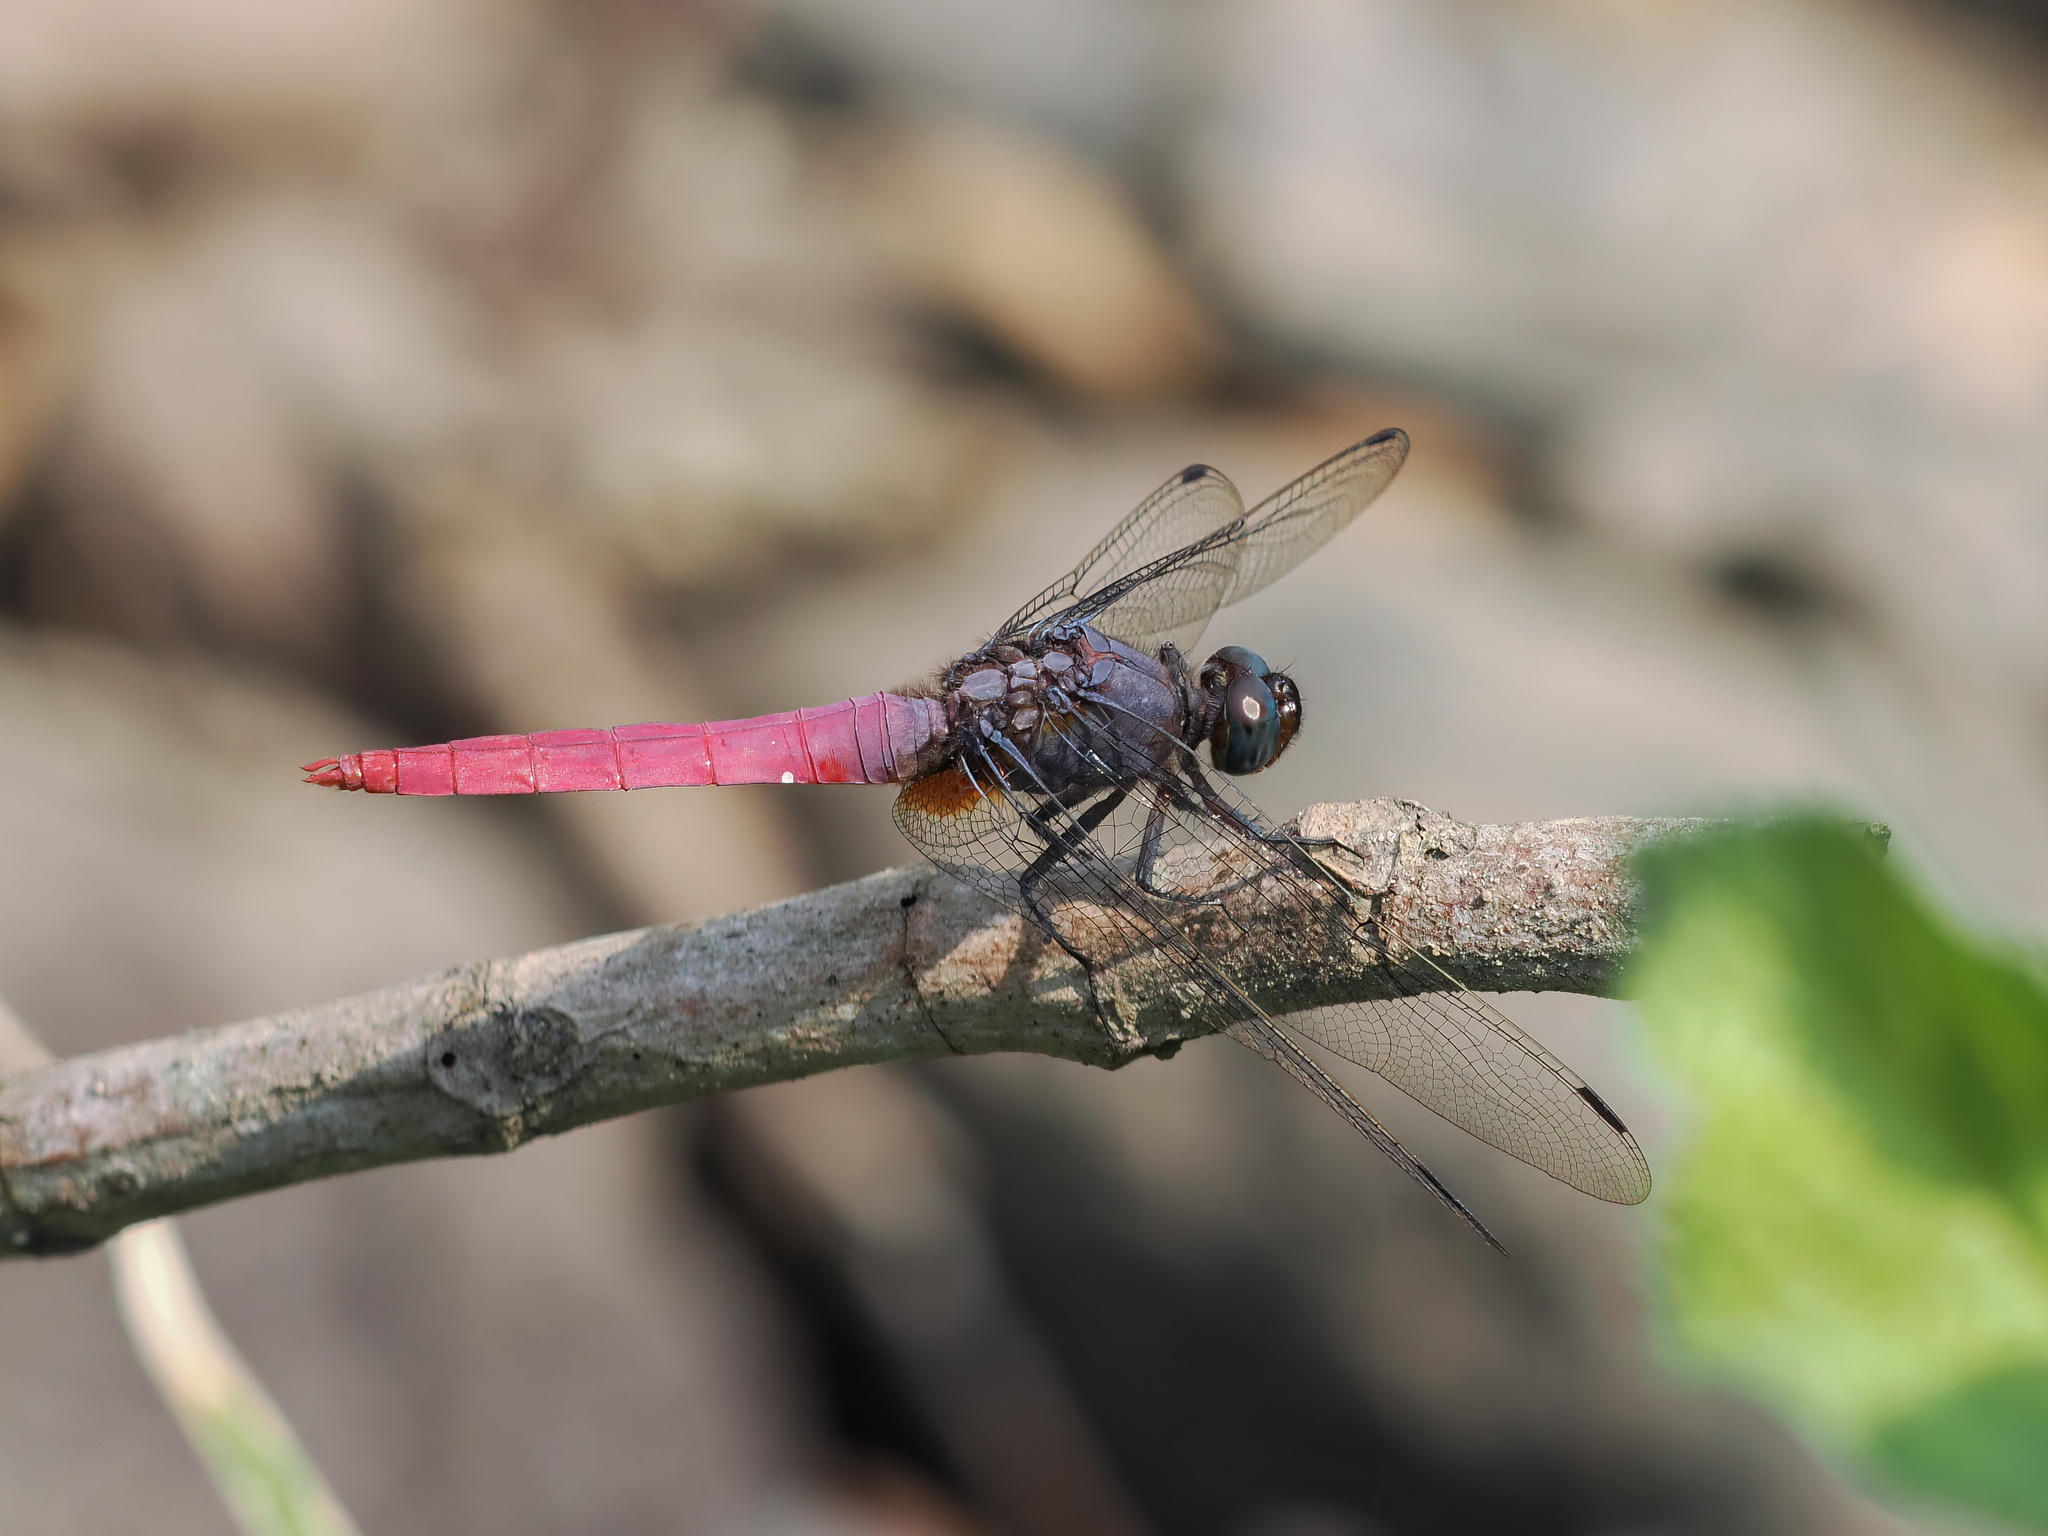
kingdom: Animalia
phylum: Arthropoda
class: Insecta
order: Odonata
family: Libellulidae
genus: Orthetrum
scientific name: Orthetrum pruinosum
